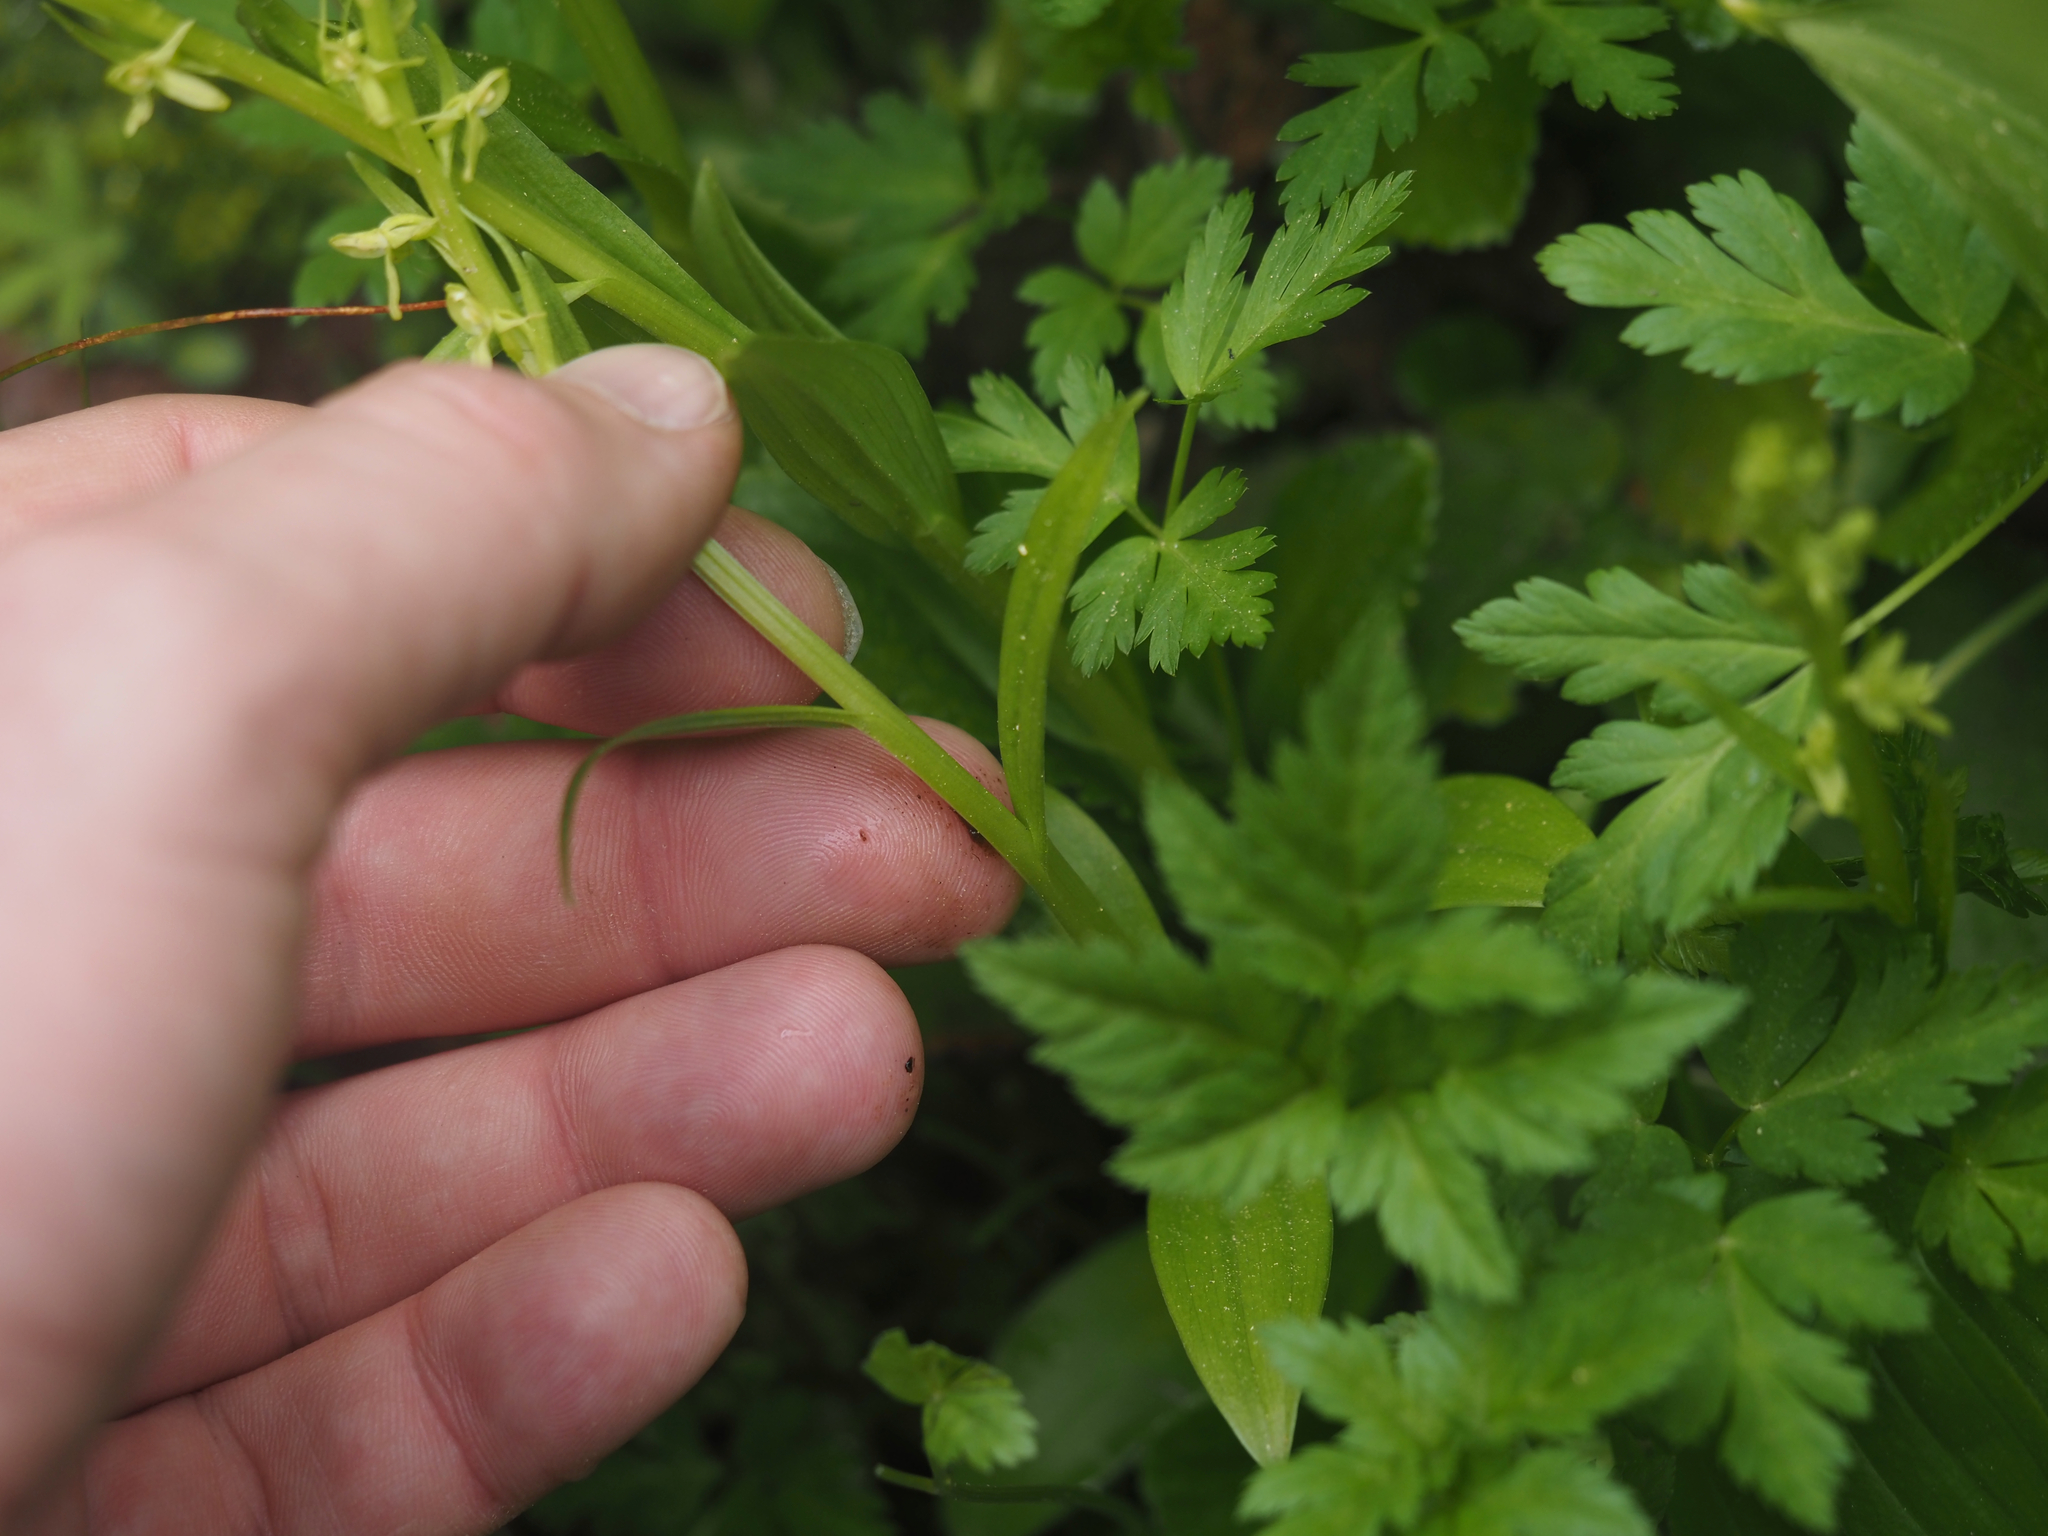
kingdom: Plantae
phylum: Tracheophyta
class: Liliopsida
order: Asparagales
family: Orchidaceae
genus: Platanthera
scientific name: Platanthera stricta
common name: Slender bog orchid
